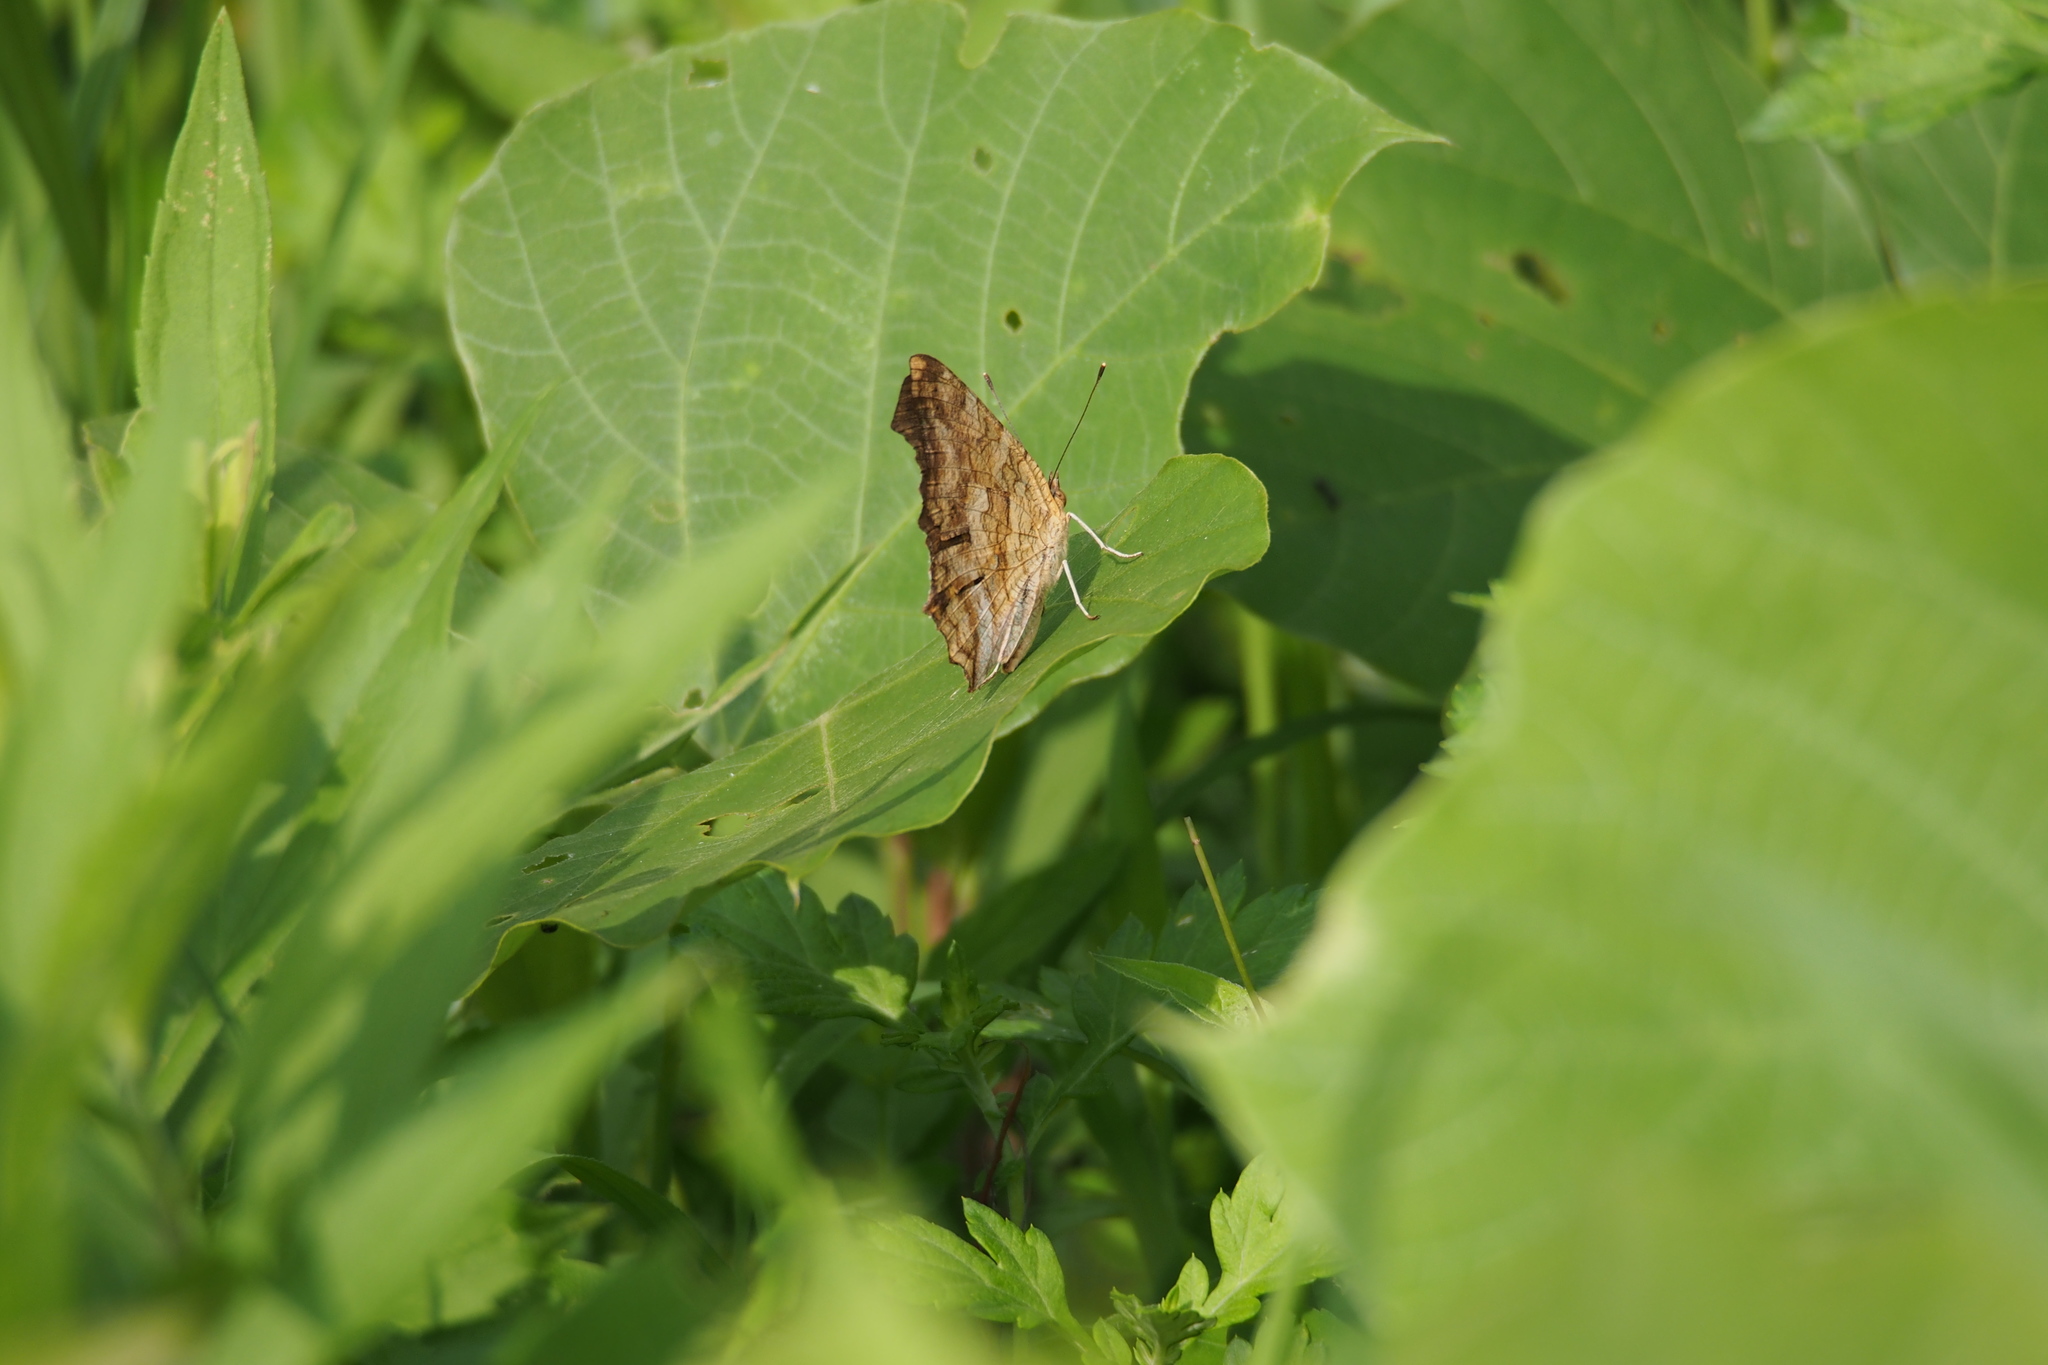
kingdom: Animalia
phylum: Arthropoda
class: Insecta
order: Lepidoptera
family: Nymphalidae
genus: Polygonia
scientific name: Polygonia c-aureum
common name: Asian comma
